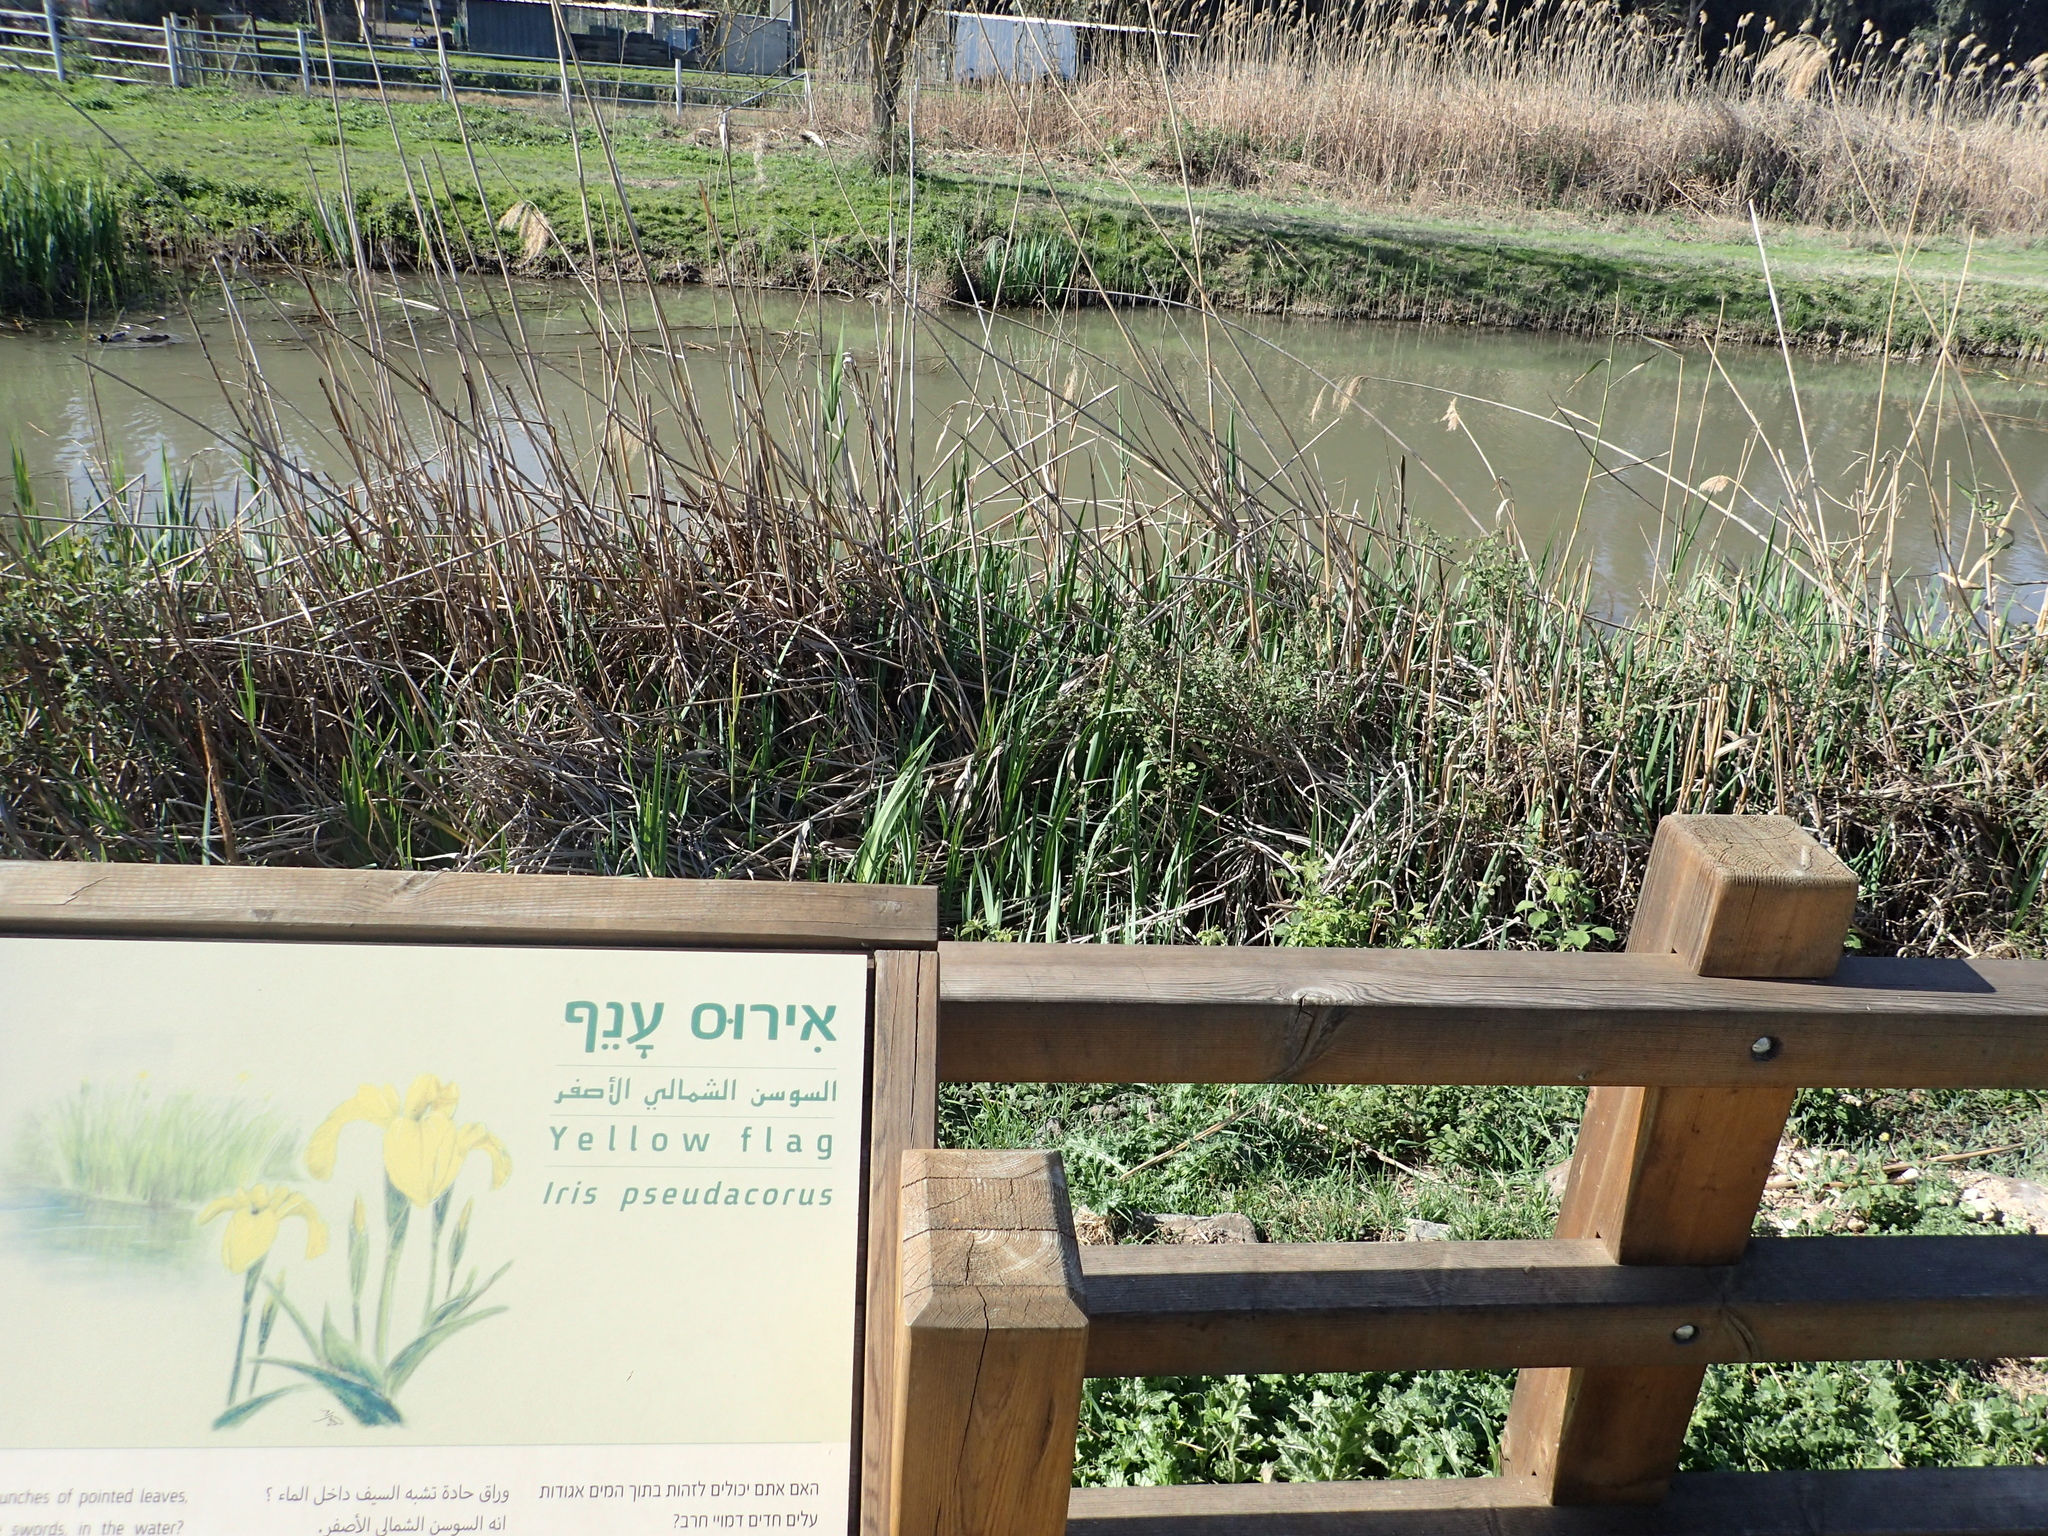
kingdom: Plantae
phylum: Tracheophyta
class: Liliopsida
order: Asparagales
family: Iridaceae
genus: Iris
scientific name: Iris pseudacorus
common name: Yellow flag
